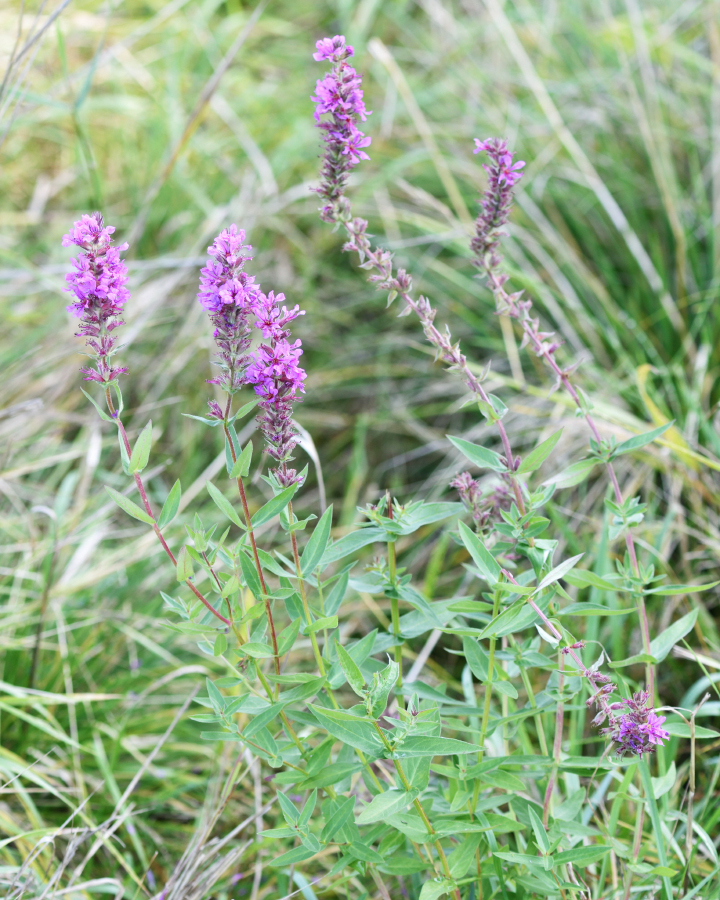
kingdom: Plantae
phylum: Tracheophyta
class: Magnoliopsida
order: Myrtales
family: Lythraceae
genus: Lythrum
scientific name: Lythrum salicaria
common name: Purple loosestrife
